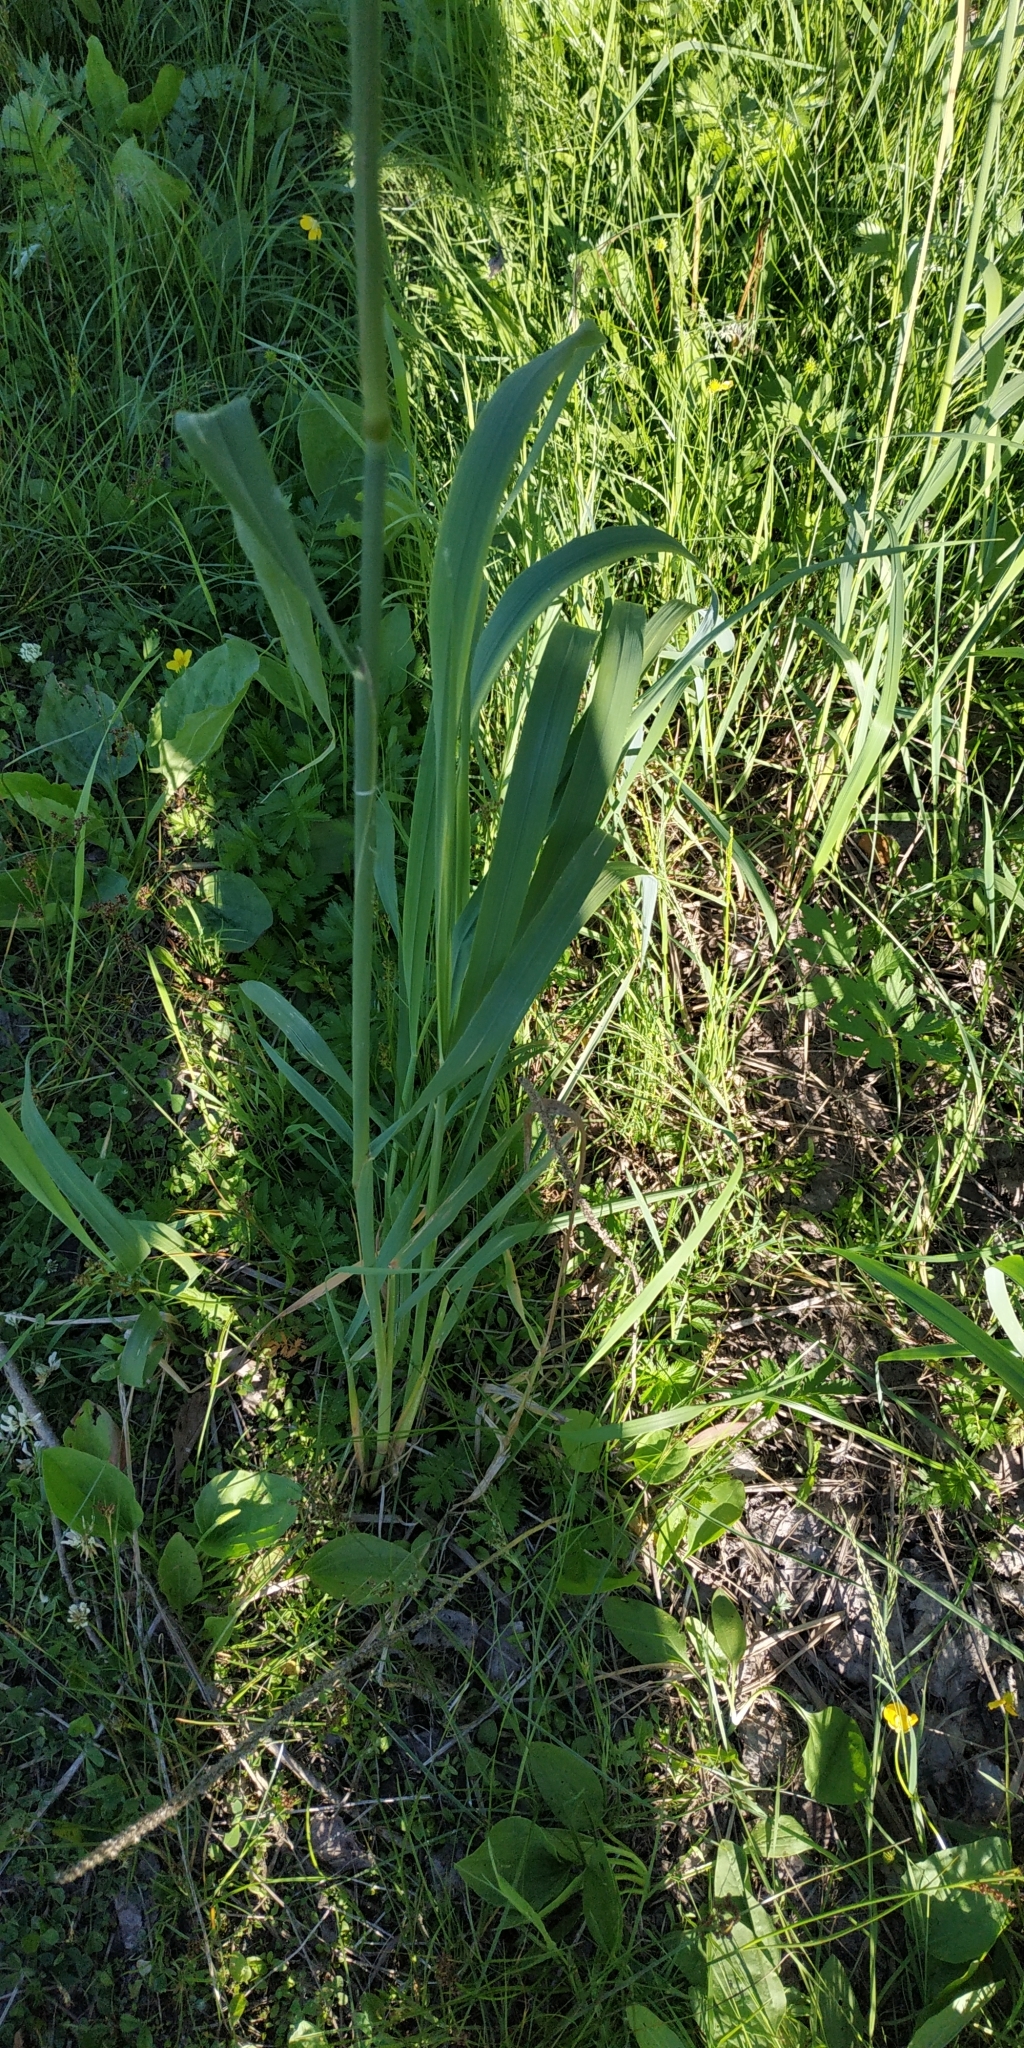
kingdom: Plantae
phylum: Tracheophyta
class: Liliopsida
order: Poales
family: Poaceae
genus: Calamagrostis
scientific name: Calamagrostis epigejos
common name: Wood small-reed
